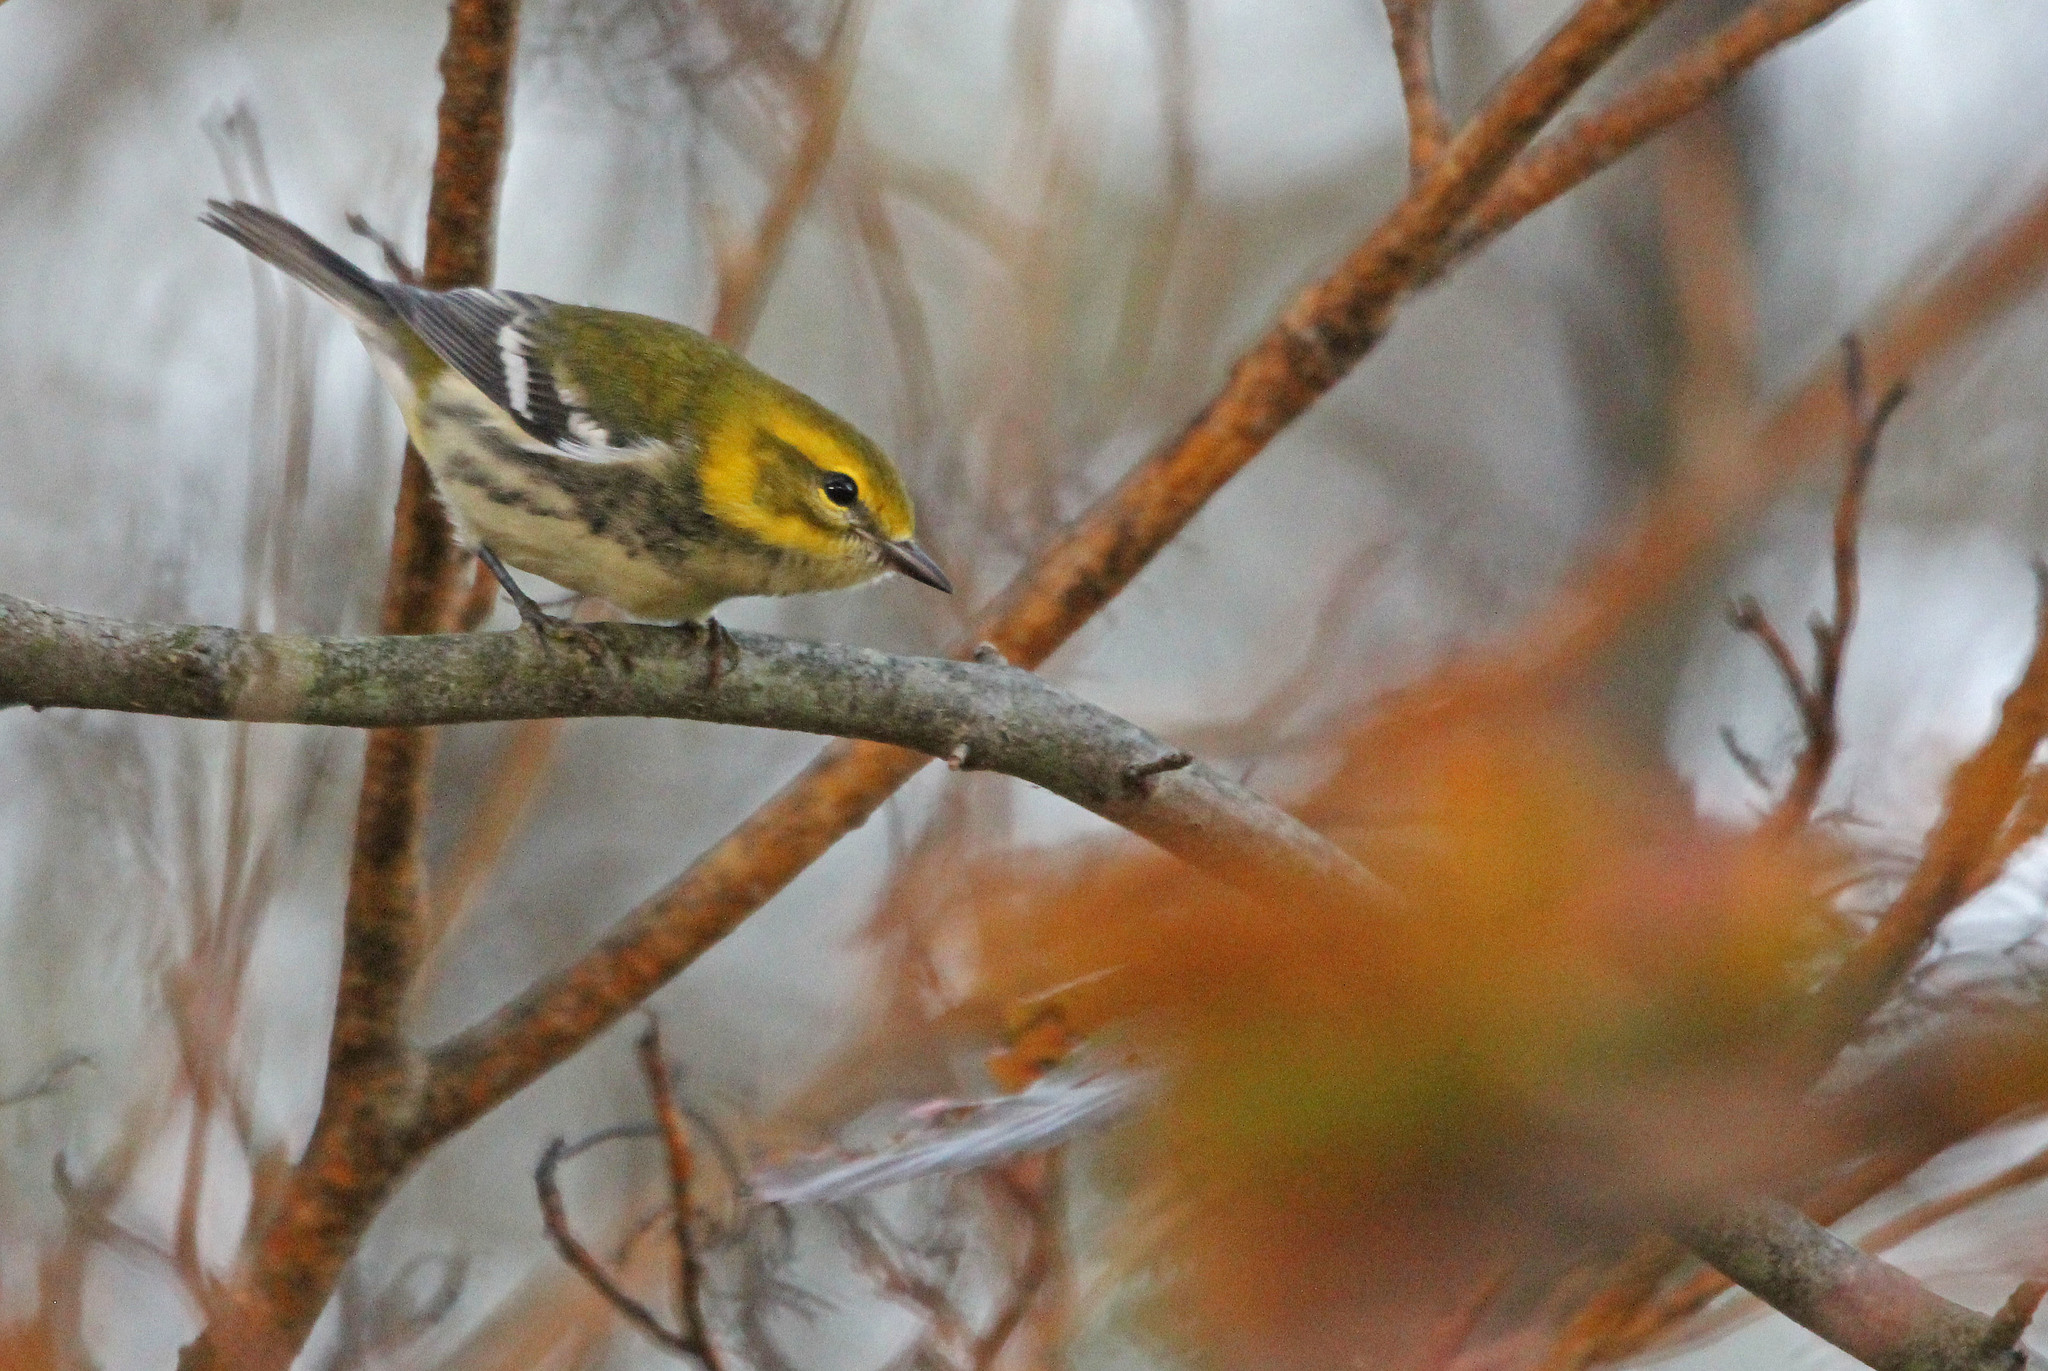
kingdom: Animalia
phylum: Chordata
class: Aves
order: Passeriformes
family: Parulidae
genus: Setophaga
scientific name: Setophaga virens
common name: Black-throated green warbler
